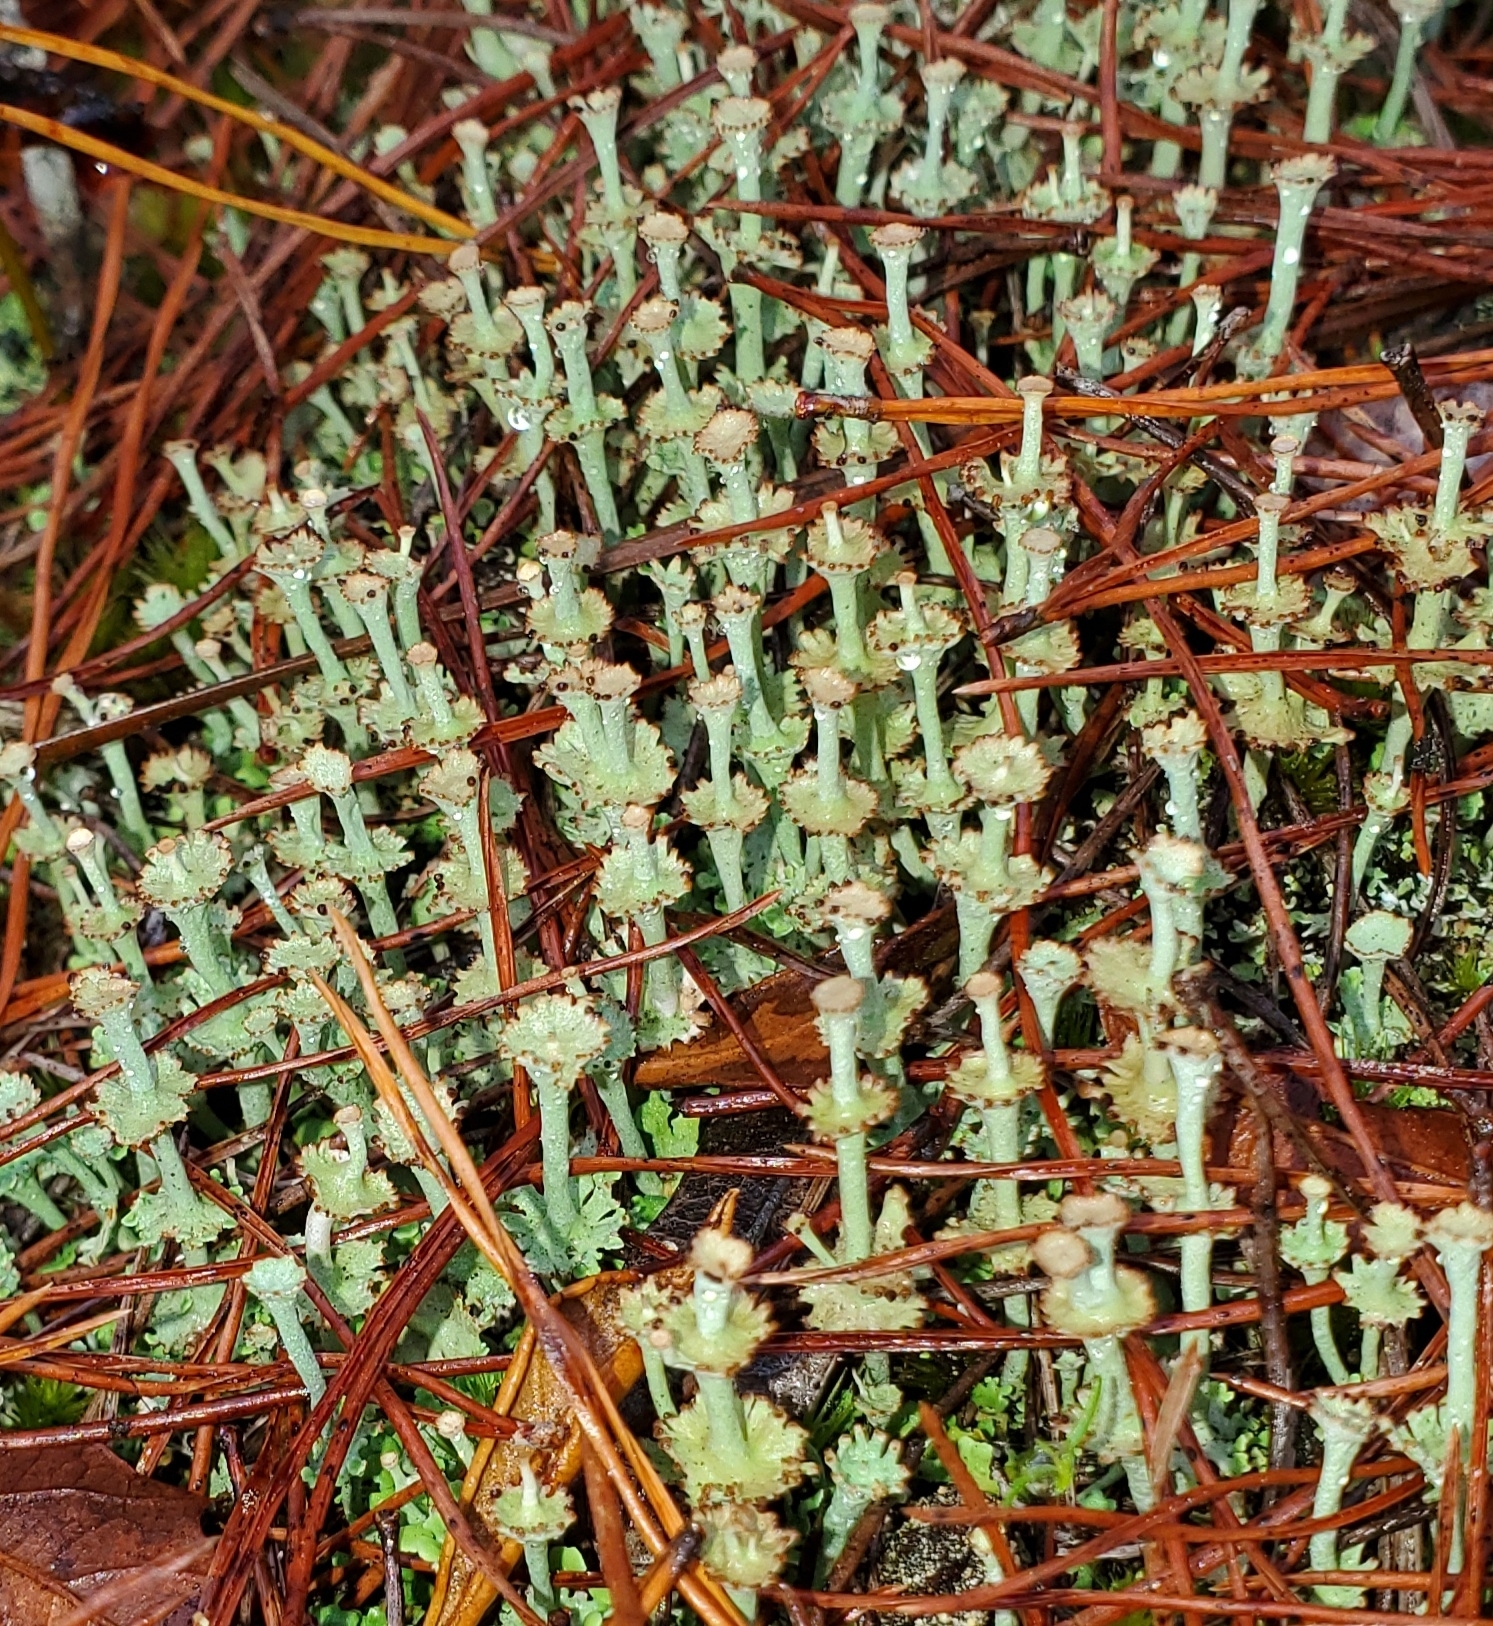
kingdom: Fungi
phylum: Ascomycota
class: Lecanoromycetes
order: Lecanorales
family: Cladoniaceae
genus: Cladonia
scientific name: Cladonia rappii
